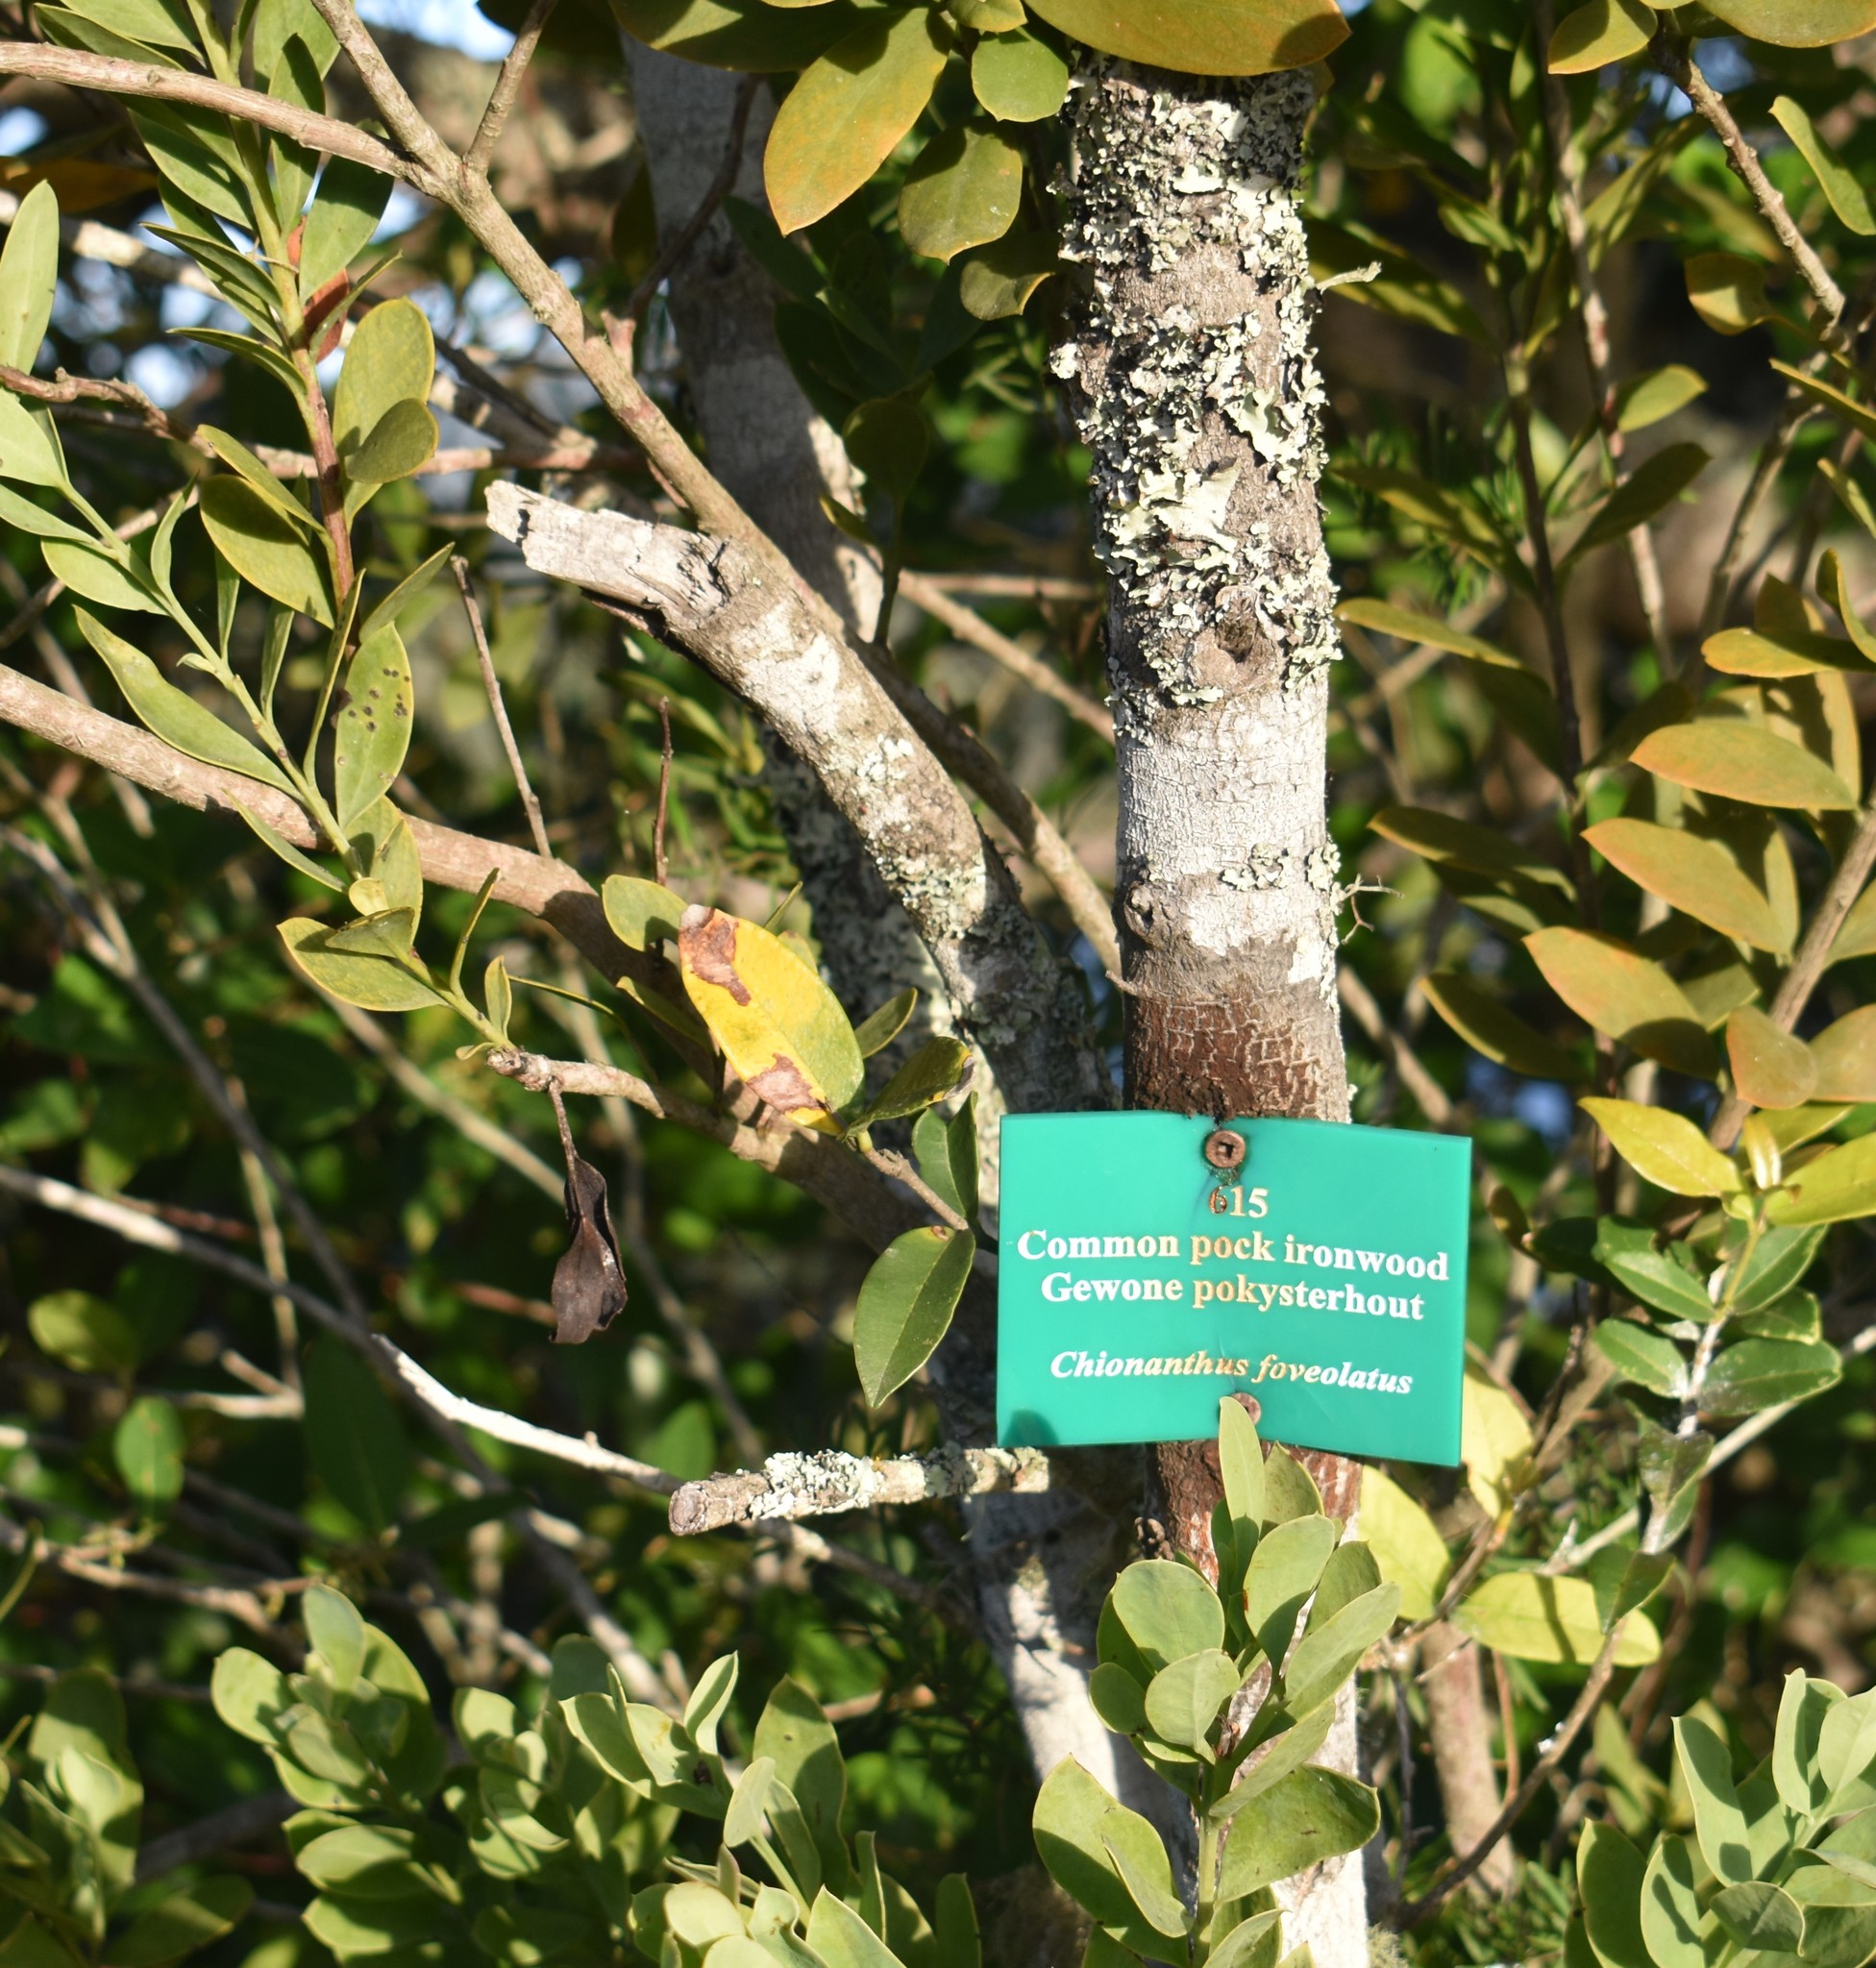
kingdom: Plantae
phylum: Tracheophyta
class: Magnoliopsida
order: Lamiales
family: Oleaceae
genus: Noronhia
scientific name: Noronhia foveolata
